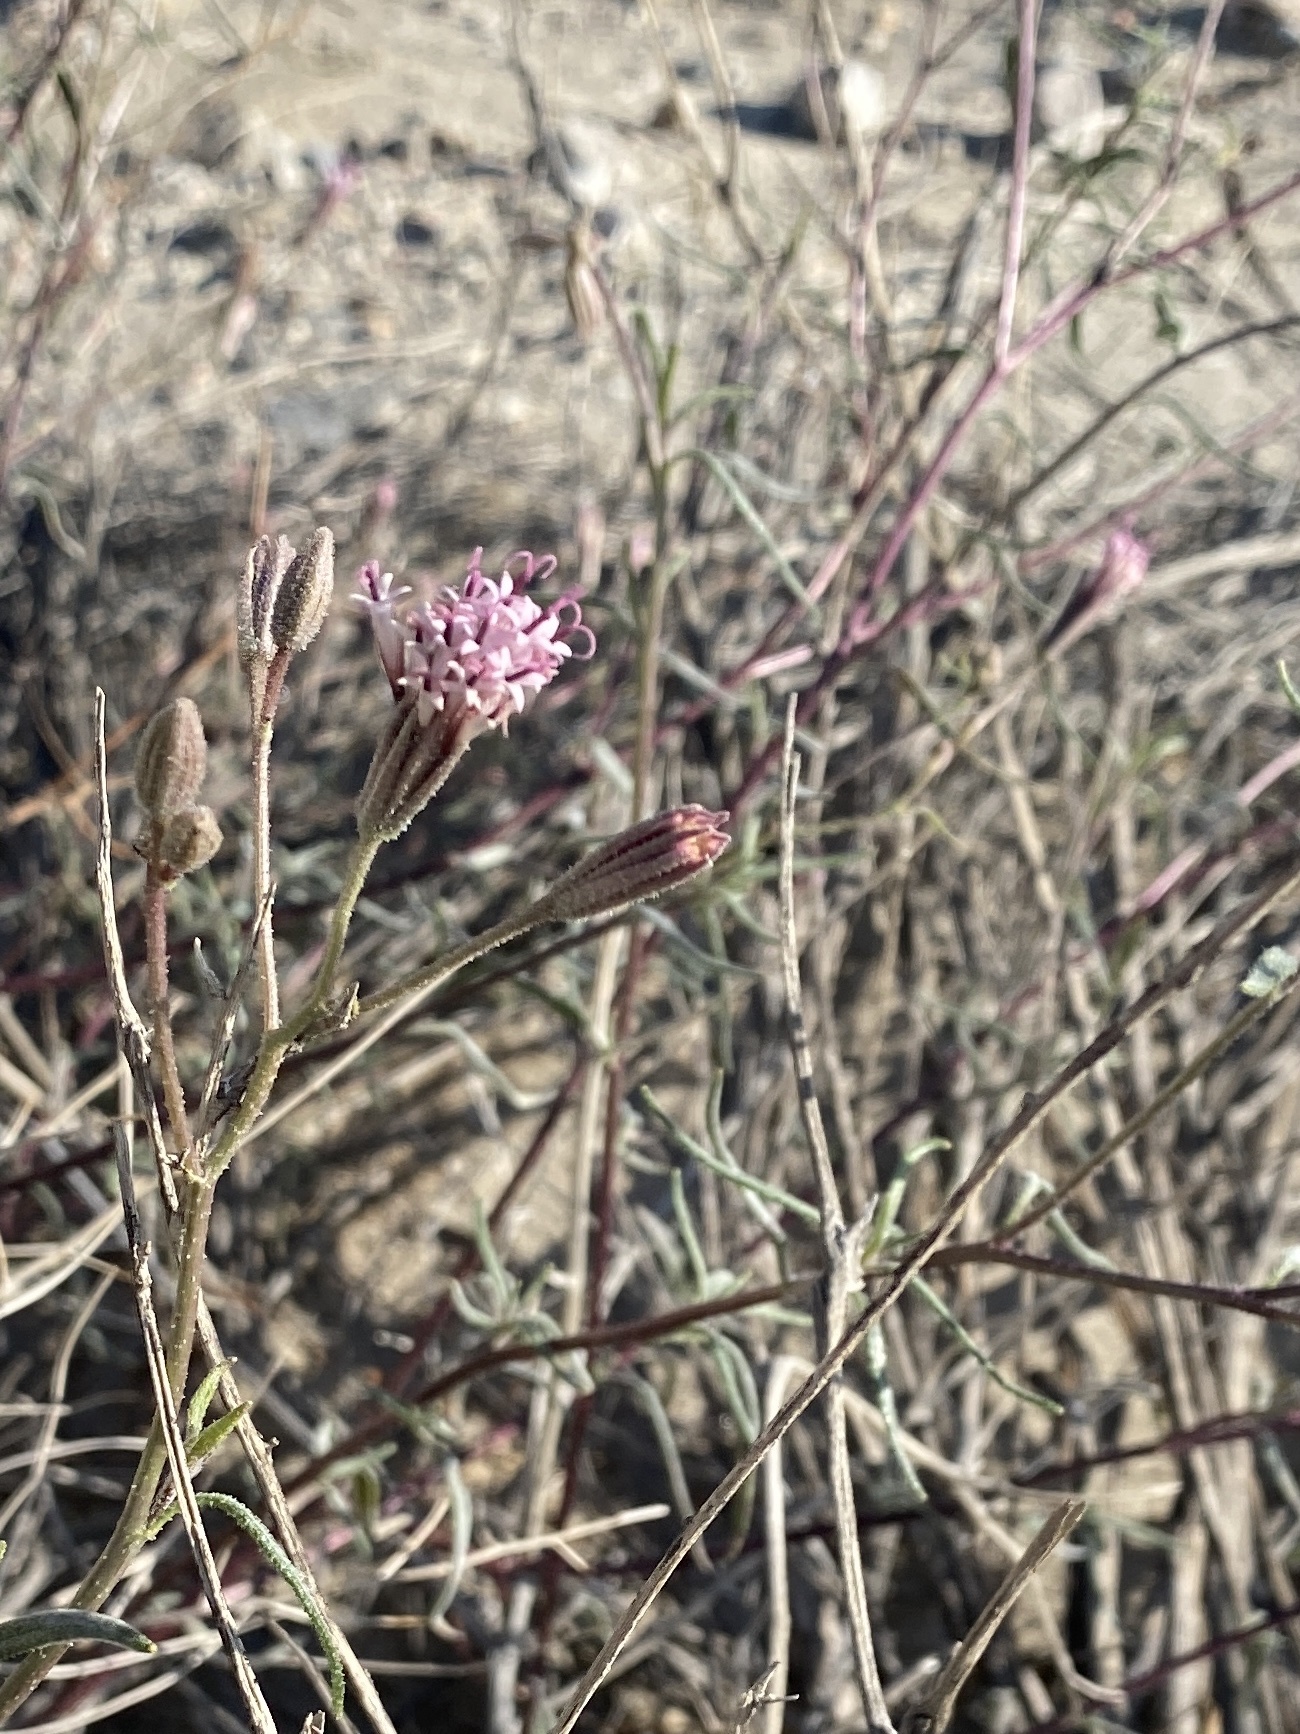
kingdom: Plantae
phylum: Tracheophyta
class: Magnoliopsida
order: Asterales
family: Asteraceae
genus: Palafoxia
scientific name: Palafoxia arida
